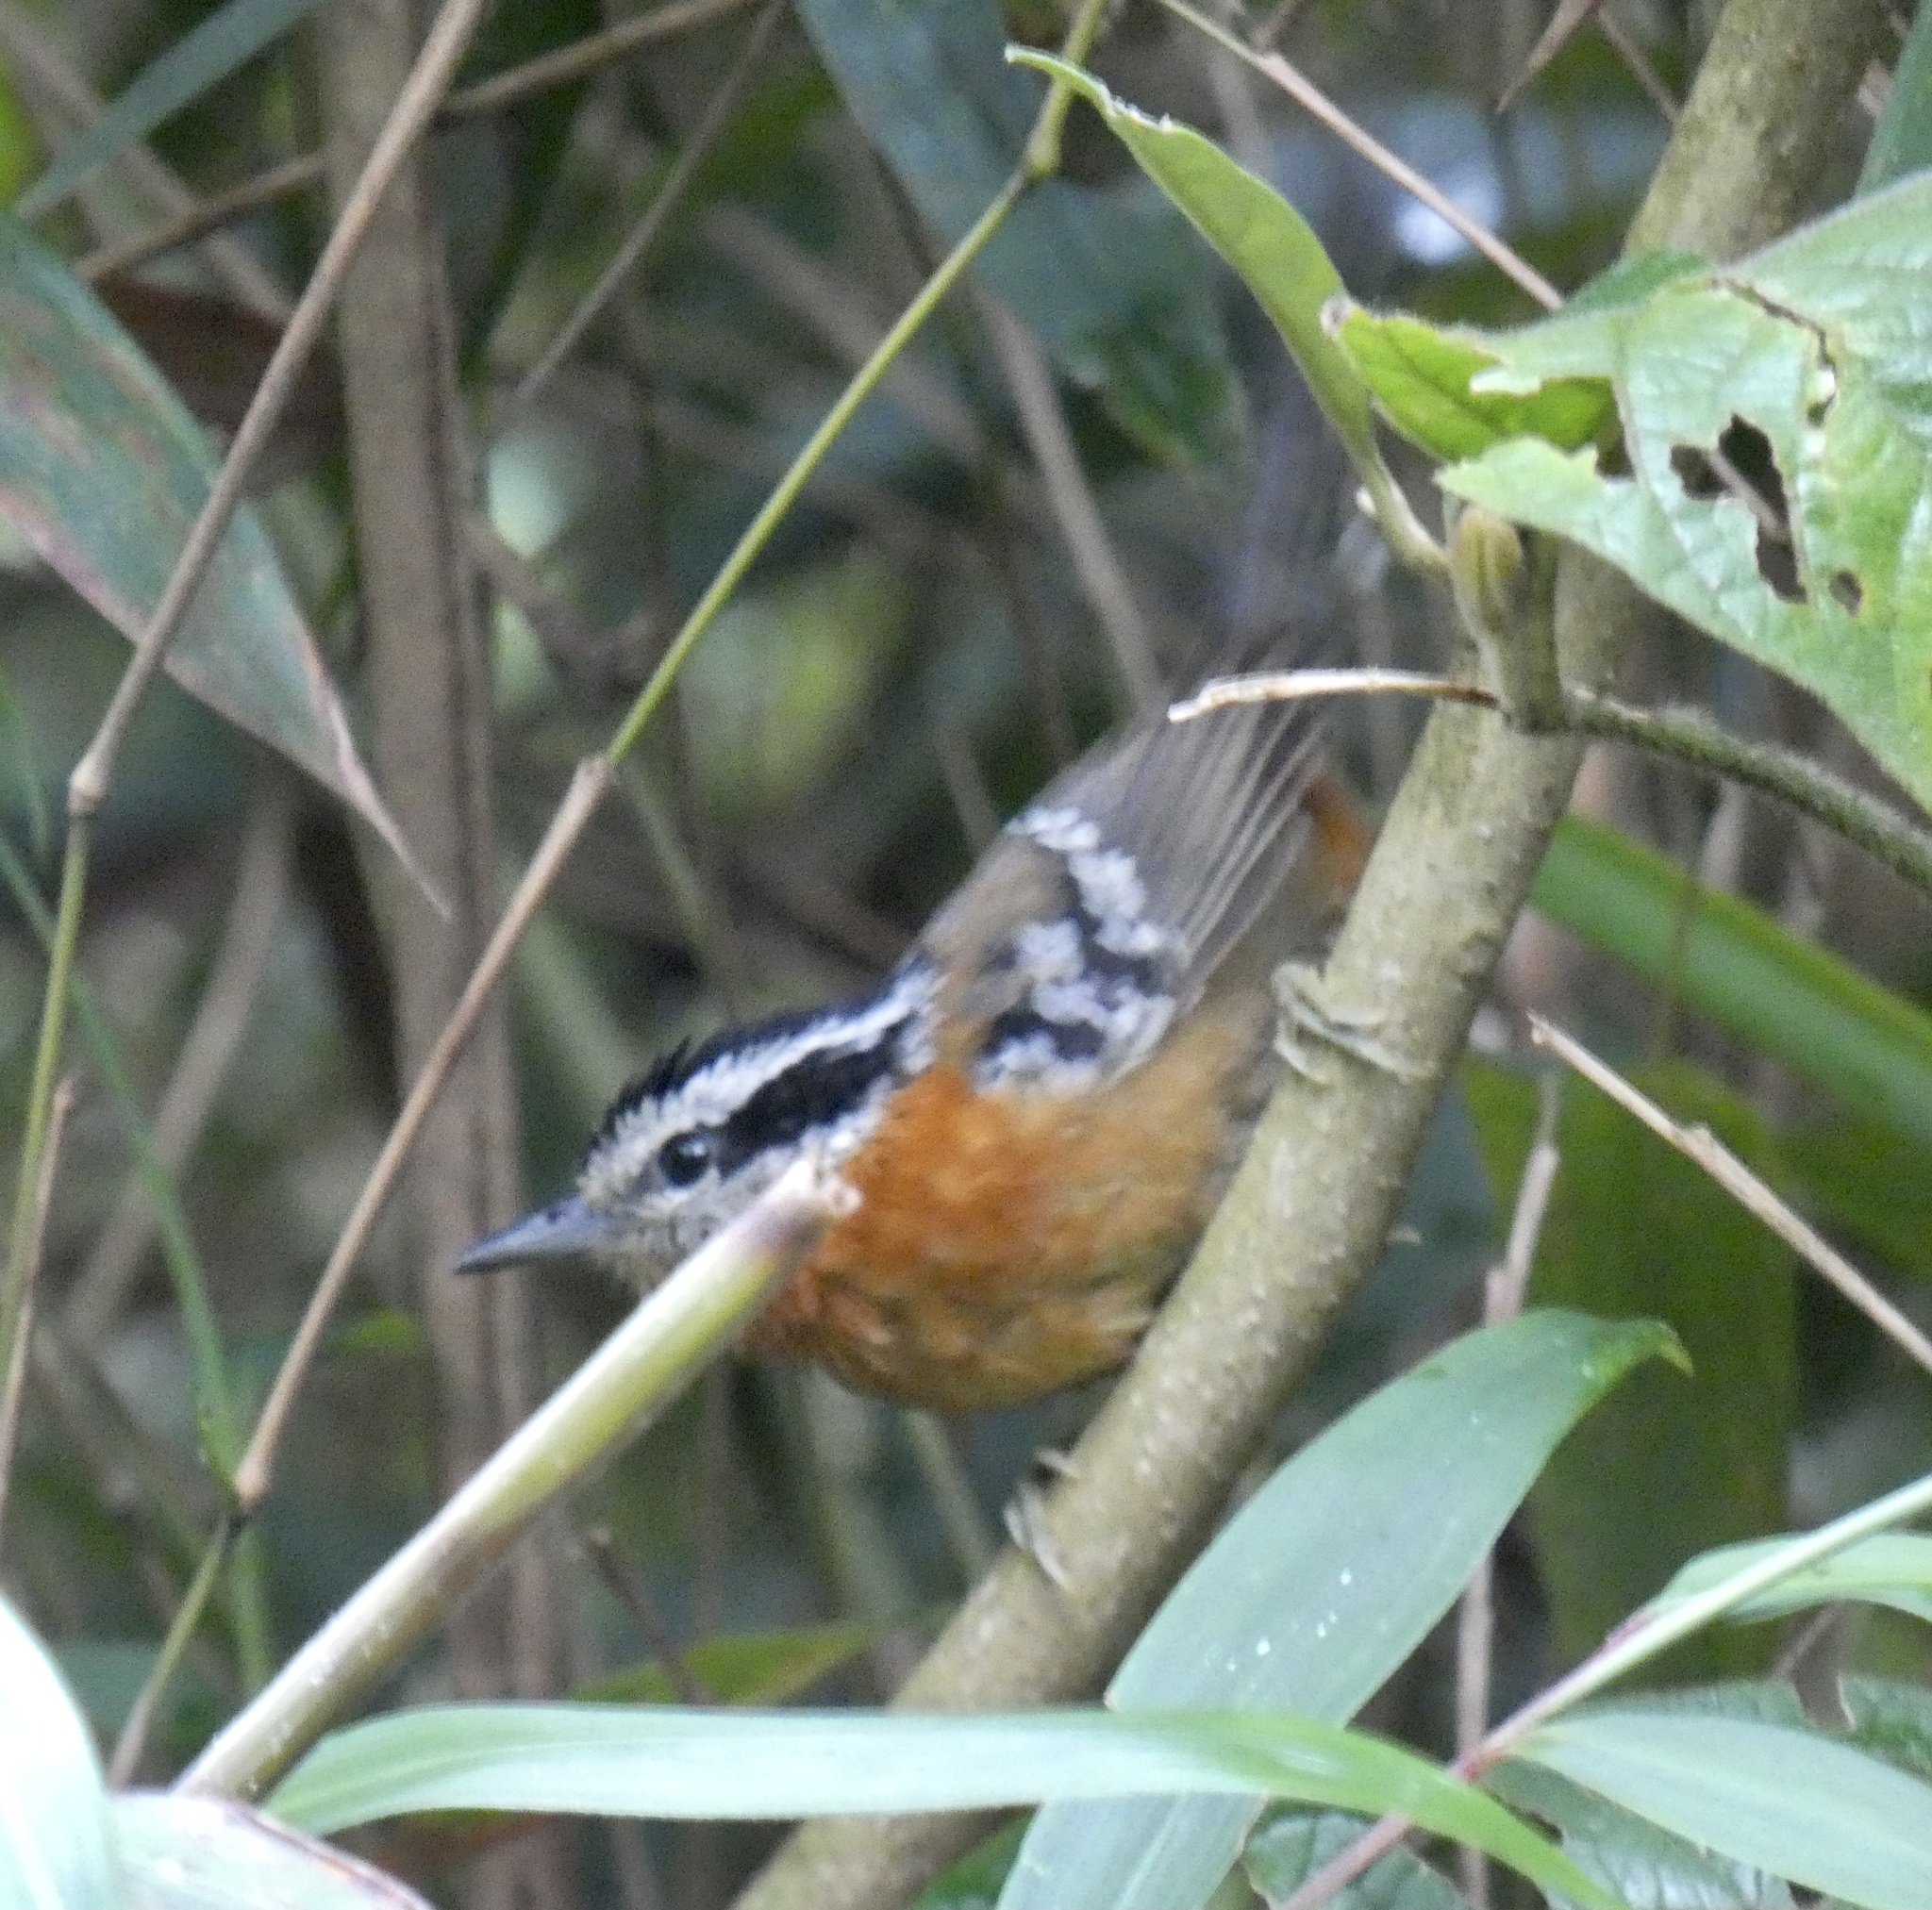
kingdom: Animalia
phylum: Chordata
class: Aves
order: Passeriformes
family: Thamnophilidae
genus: Drymophila
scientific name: Drymophila rubricollis
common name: Bertoni's antbird
